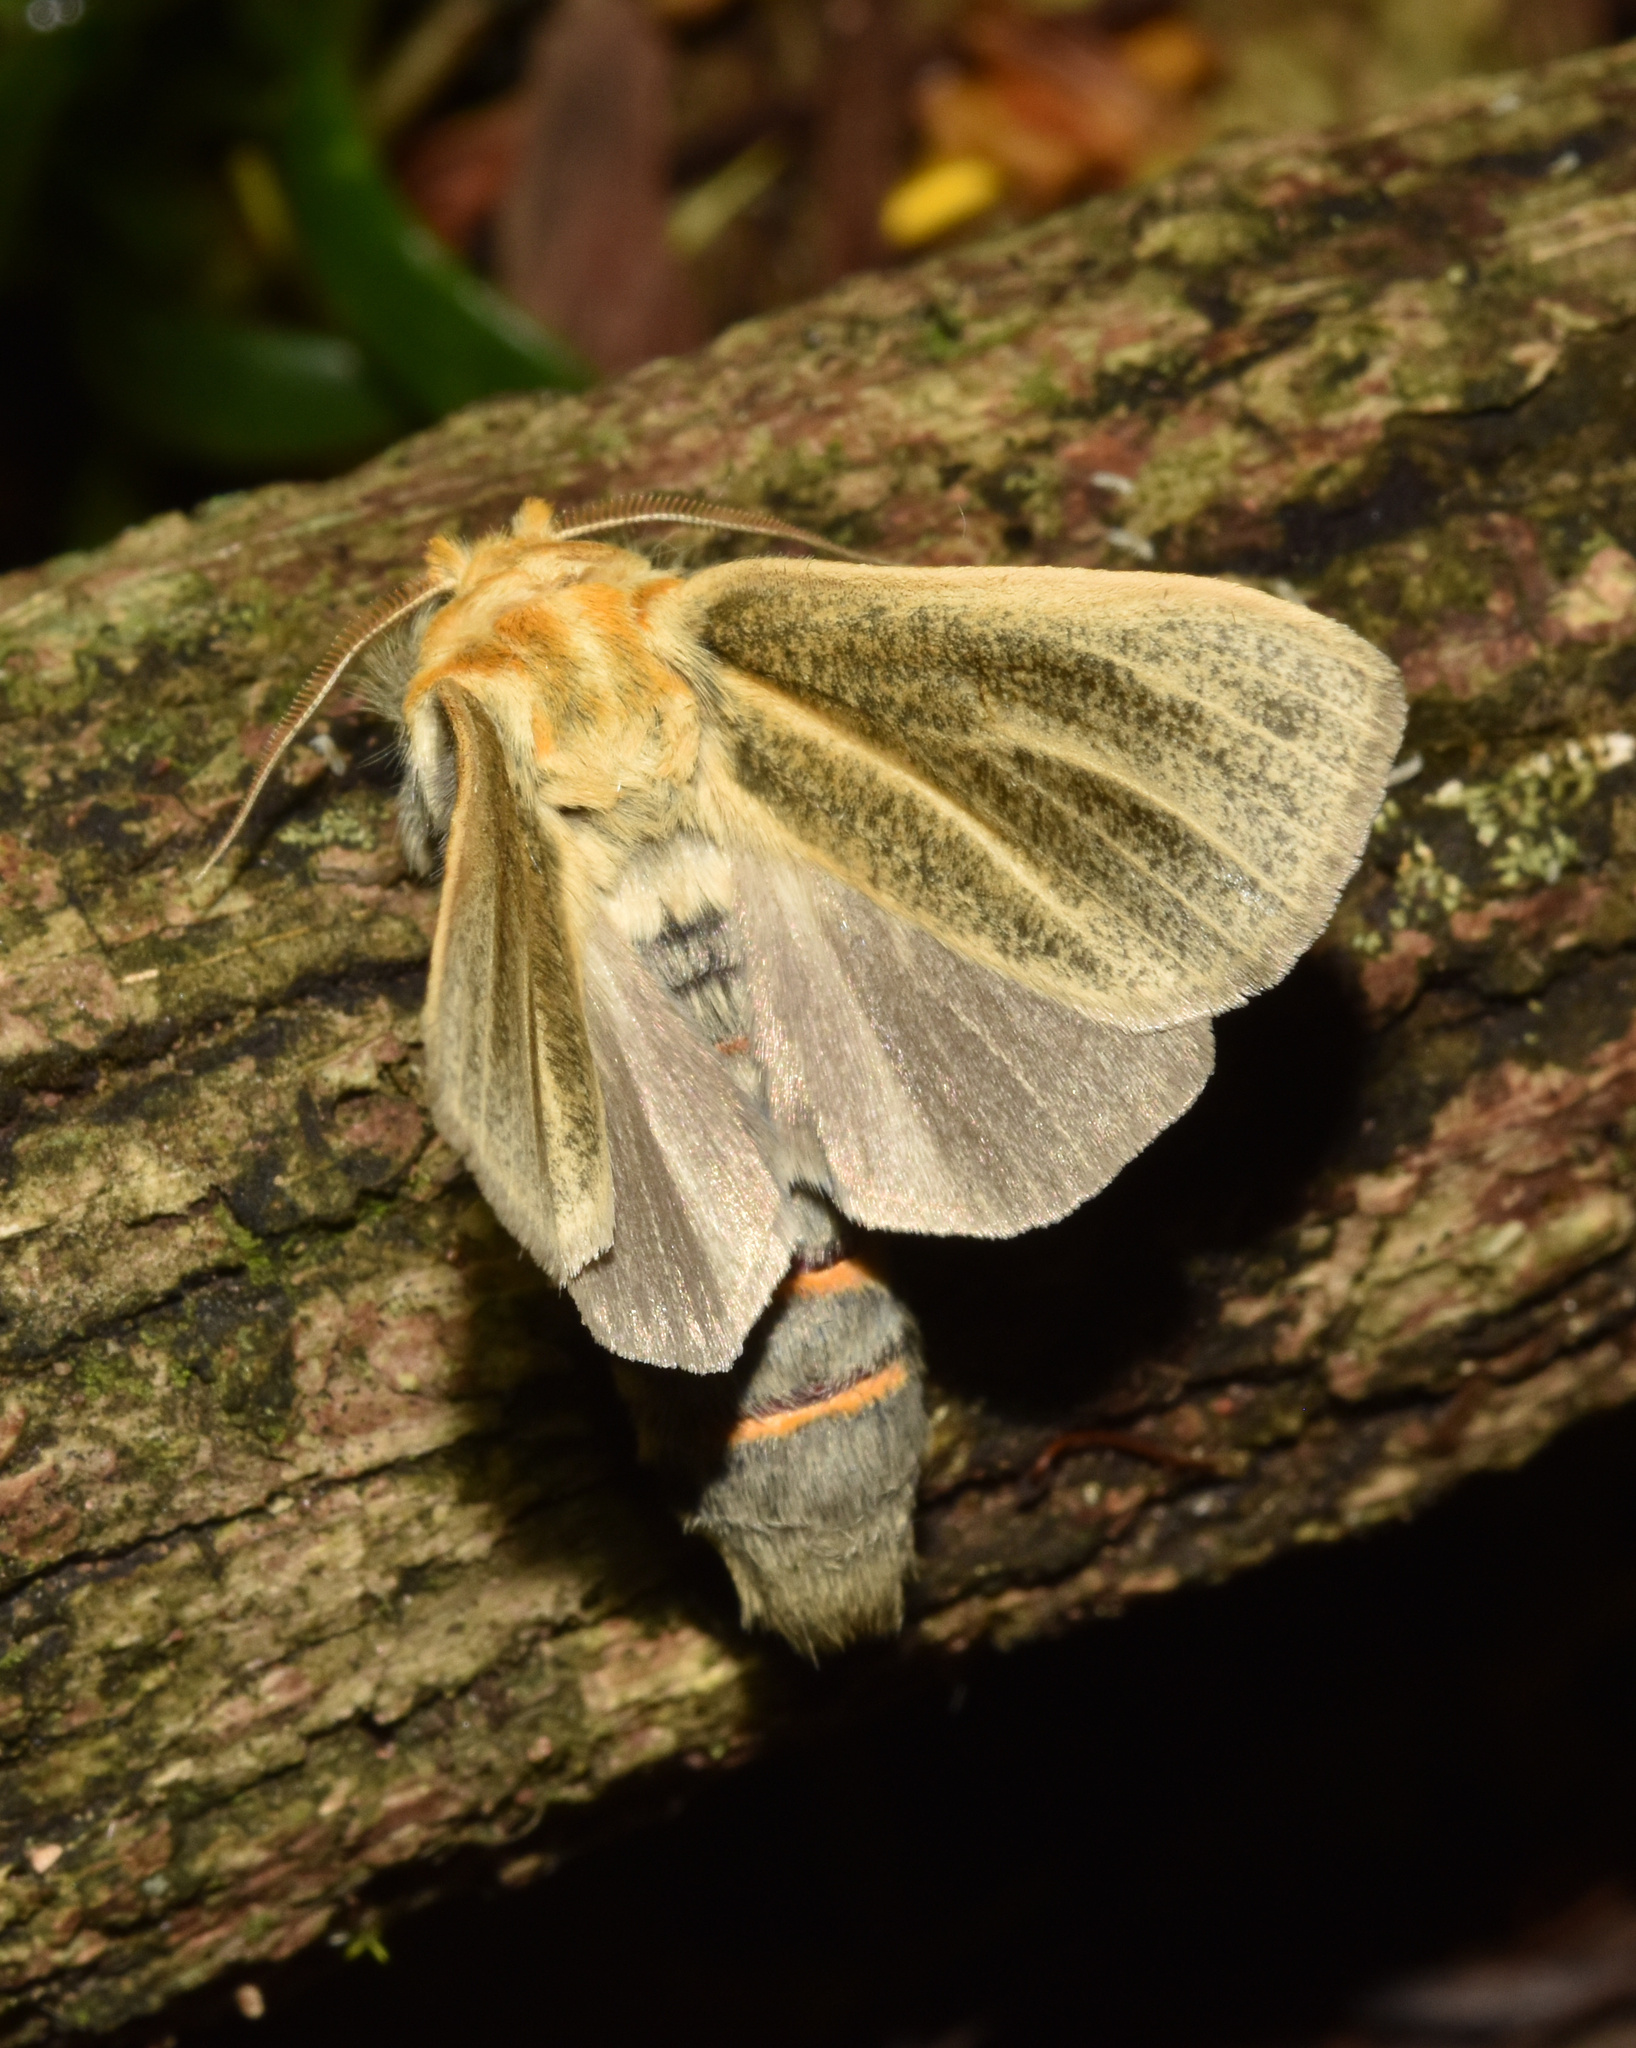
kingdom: Animalia
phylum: Arthropoda
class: Insecta
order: Lepidoptera
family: Notodontidae
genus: Antheua
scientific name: Antheua simplex
